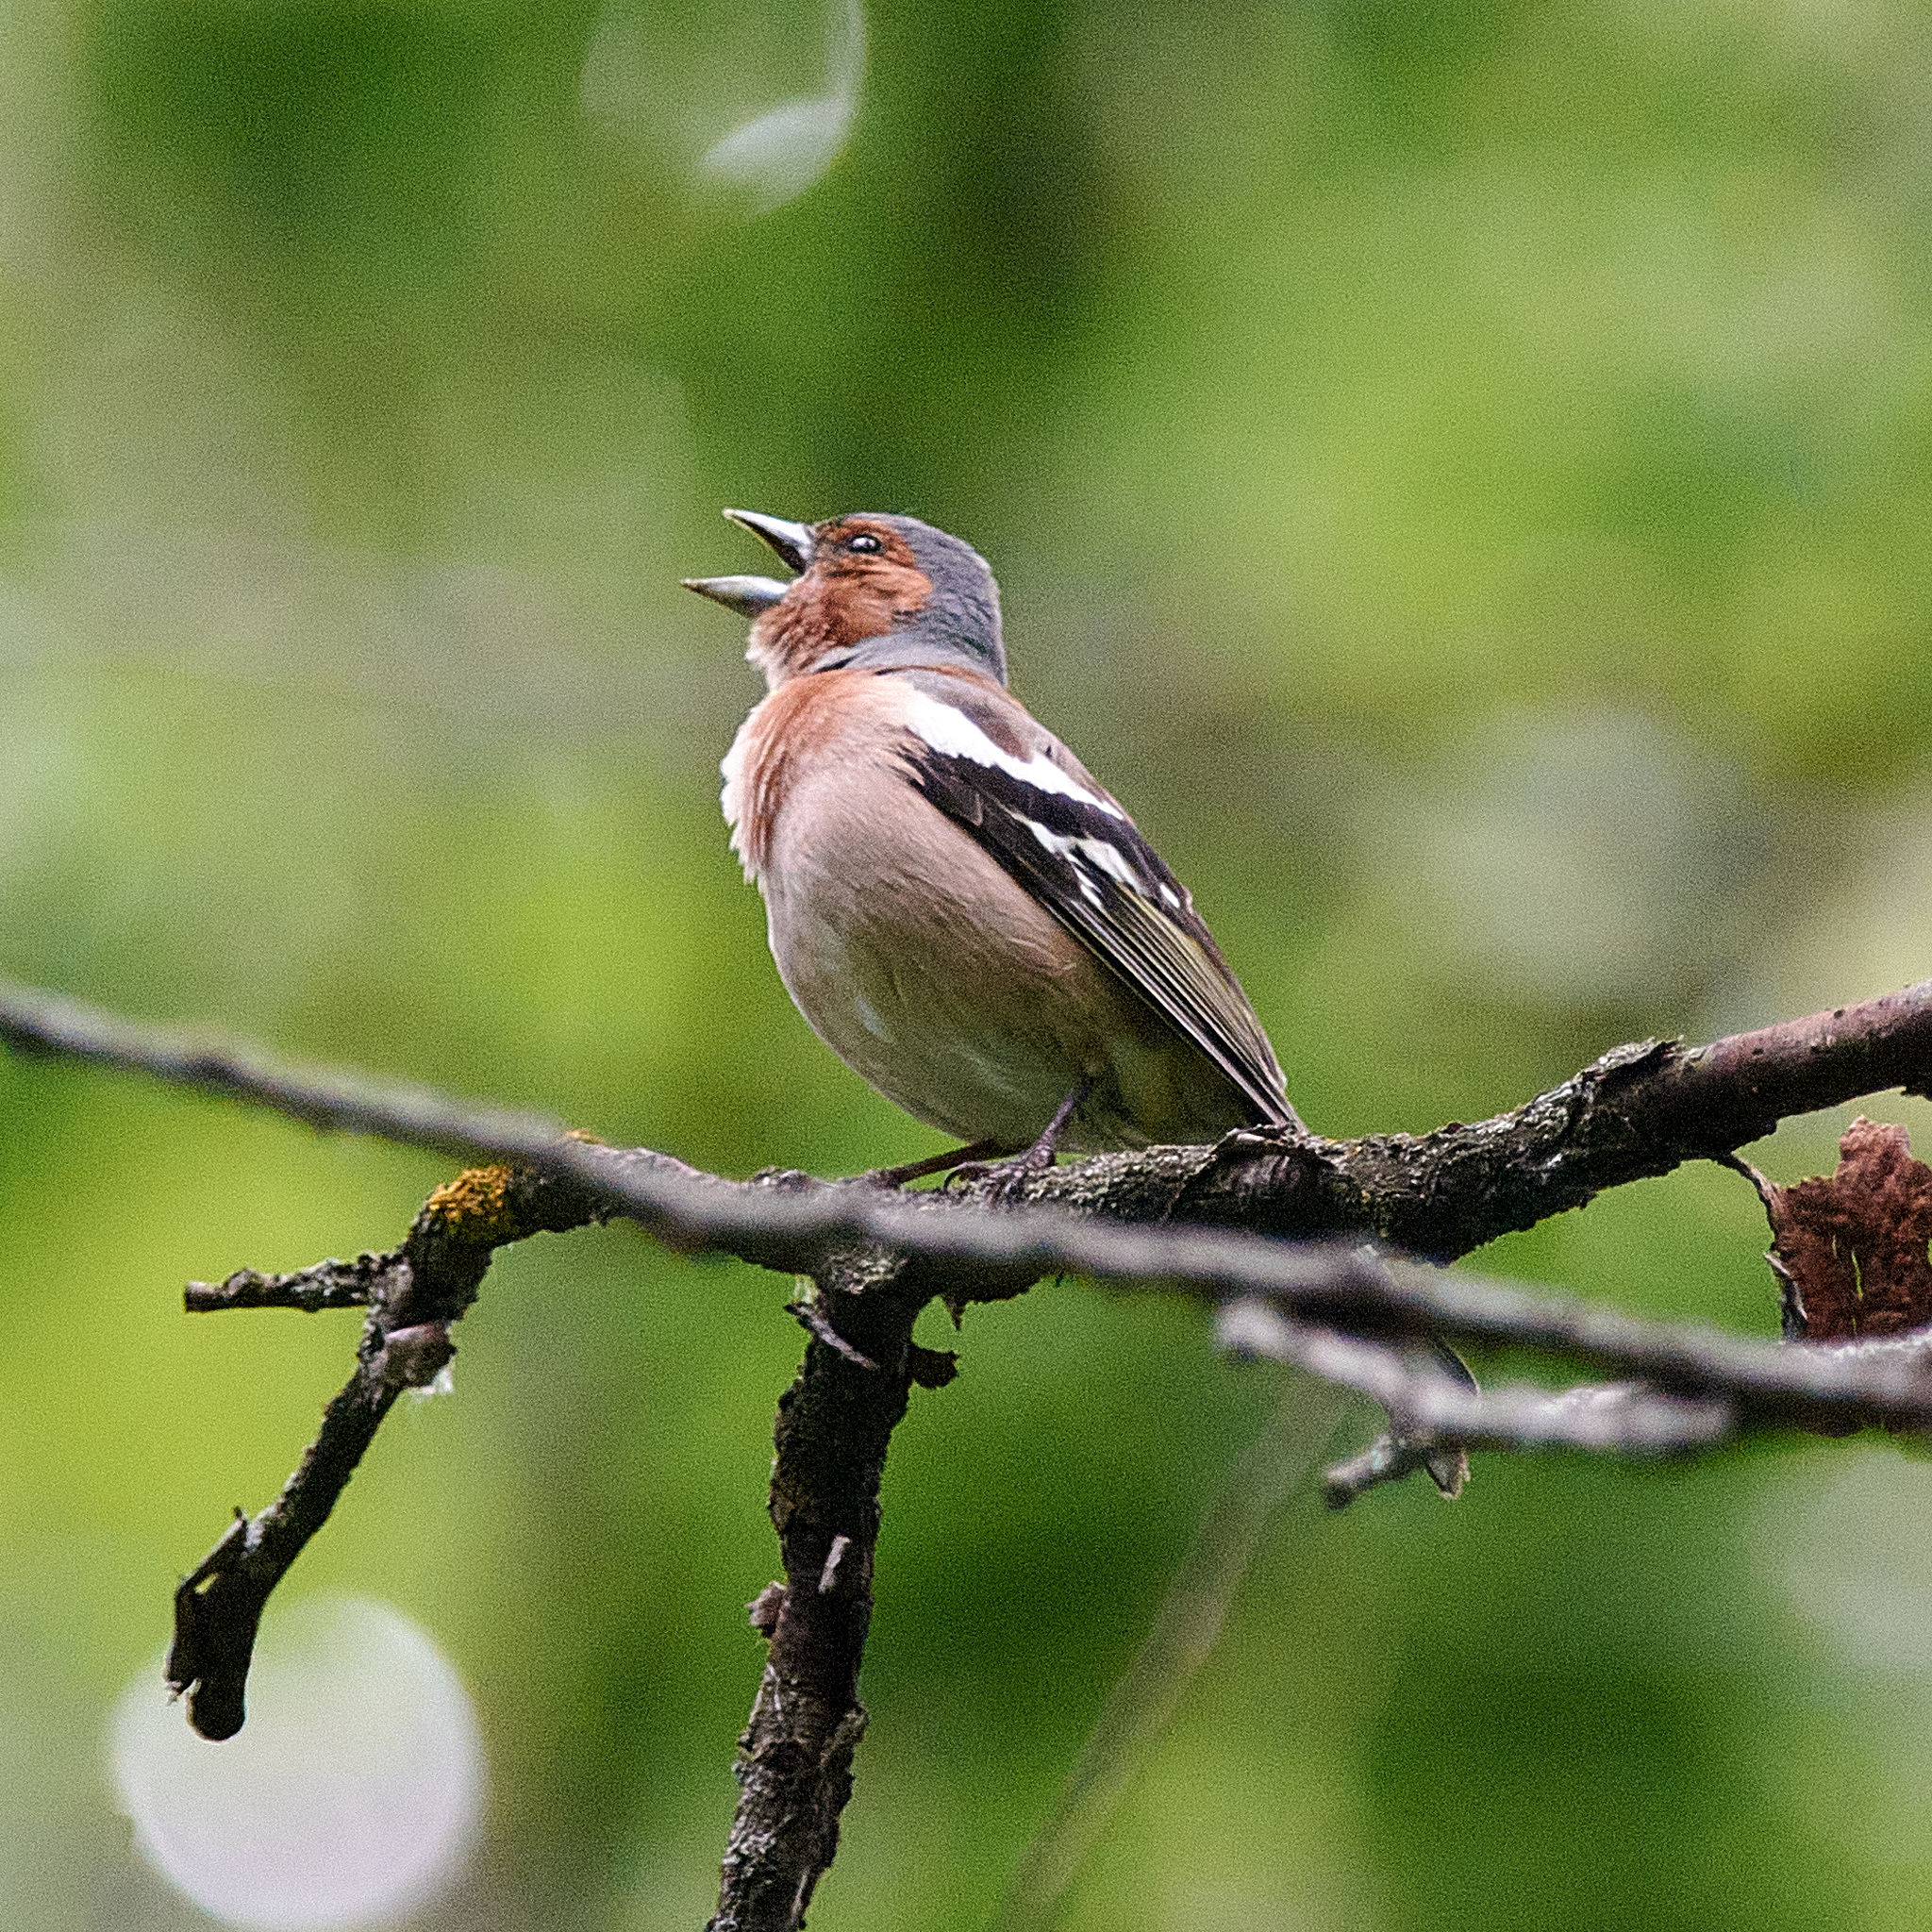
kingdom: Animalia
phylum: Chordata
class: Aves
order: Passeriformes
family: Fringillidae
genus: Fringilla
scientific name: Fringilla coelebs
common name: Common chaffinch
